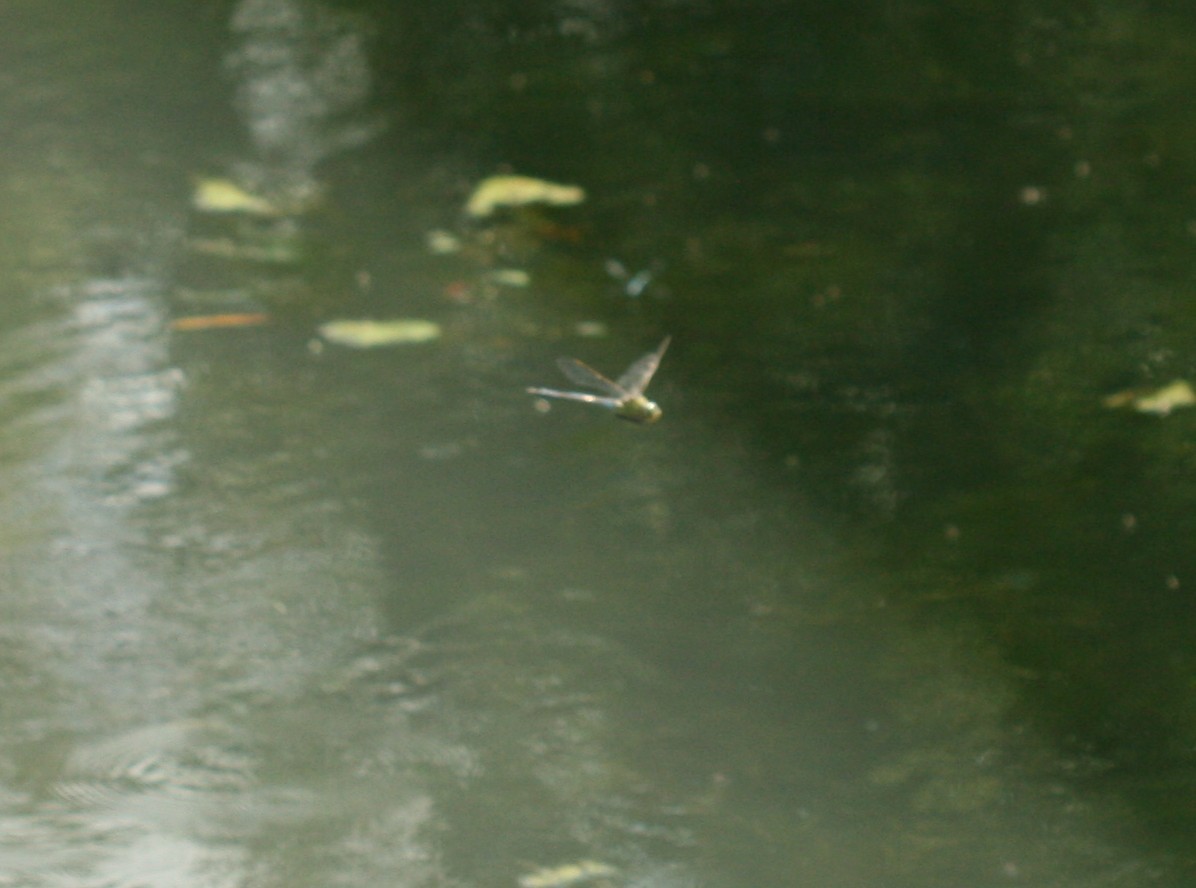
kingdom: Animalia
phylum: Arthropoda
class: Insecta
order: Odonata
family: Aeshnidae
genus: Anax
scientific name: Anax imperator
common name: Emperor dragonfly
